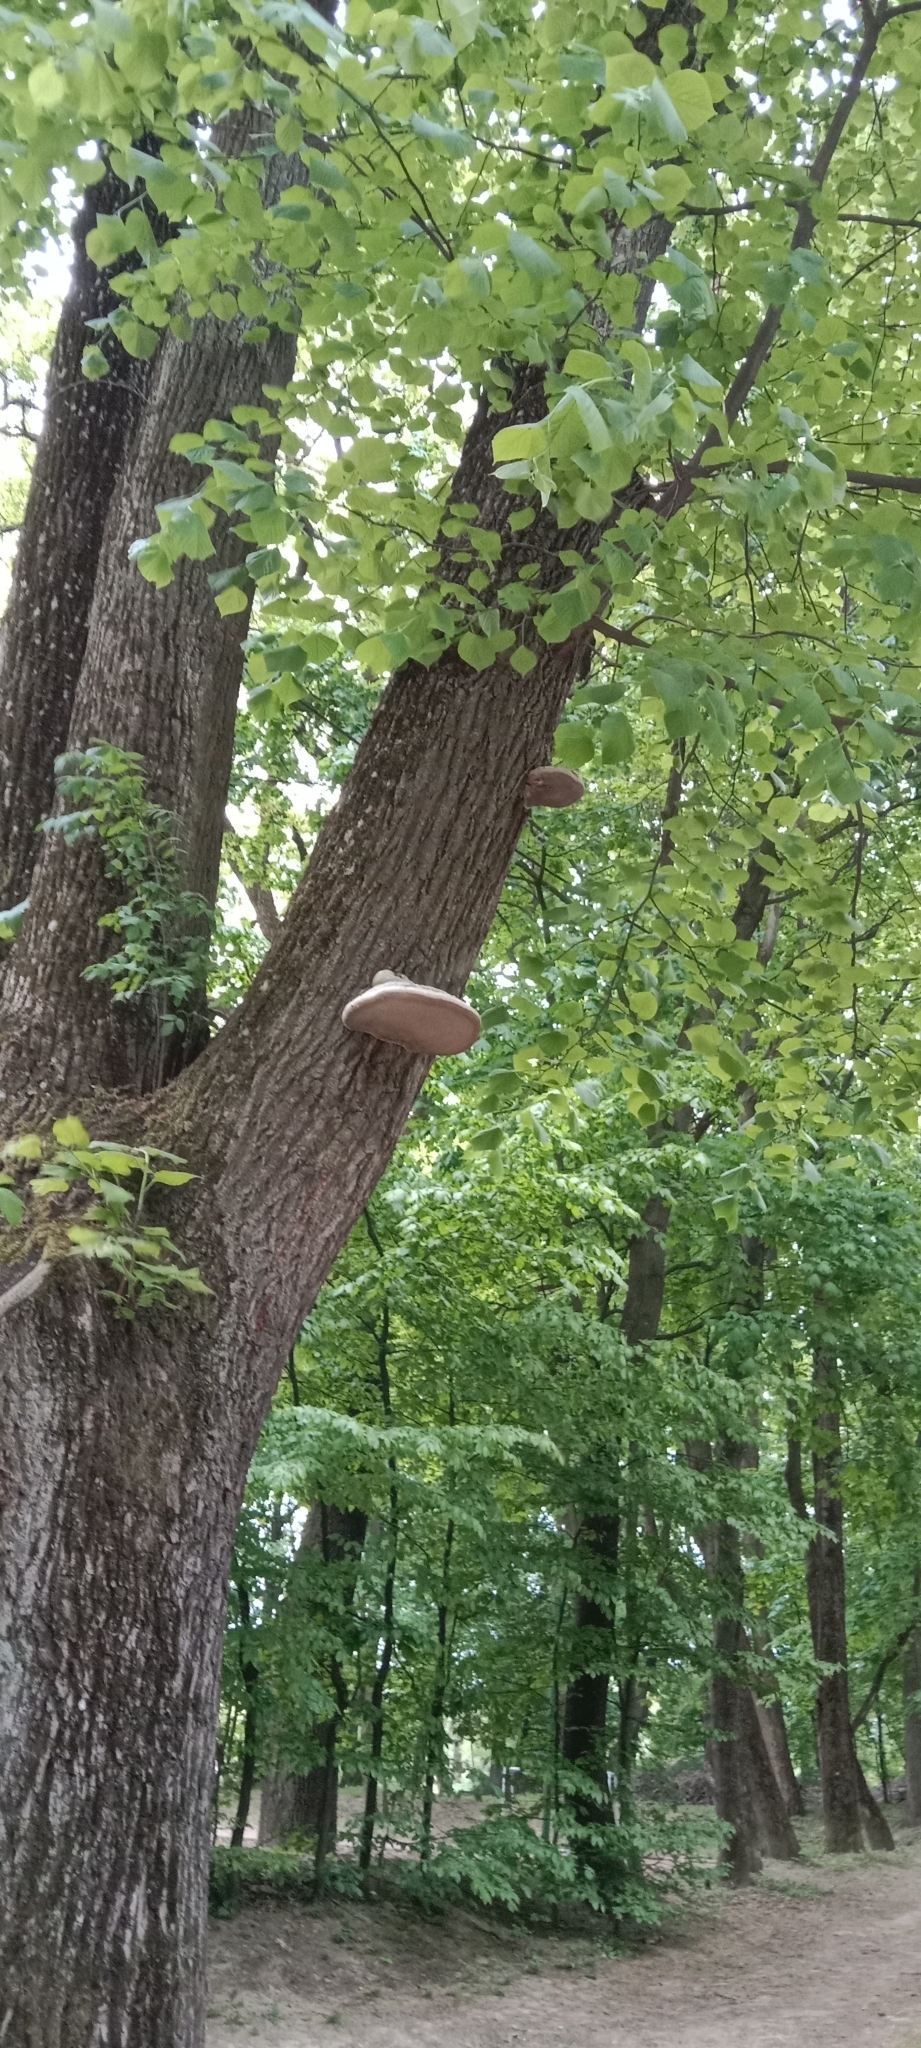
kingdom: Fungi
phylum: Basidiomycota
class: Agaricomycetes
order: Polyporales
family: Polyporaceae
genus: Fomes
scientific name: Fomes fomentarius
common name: Hoof fungus
